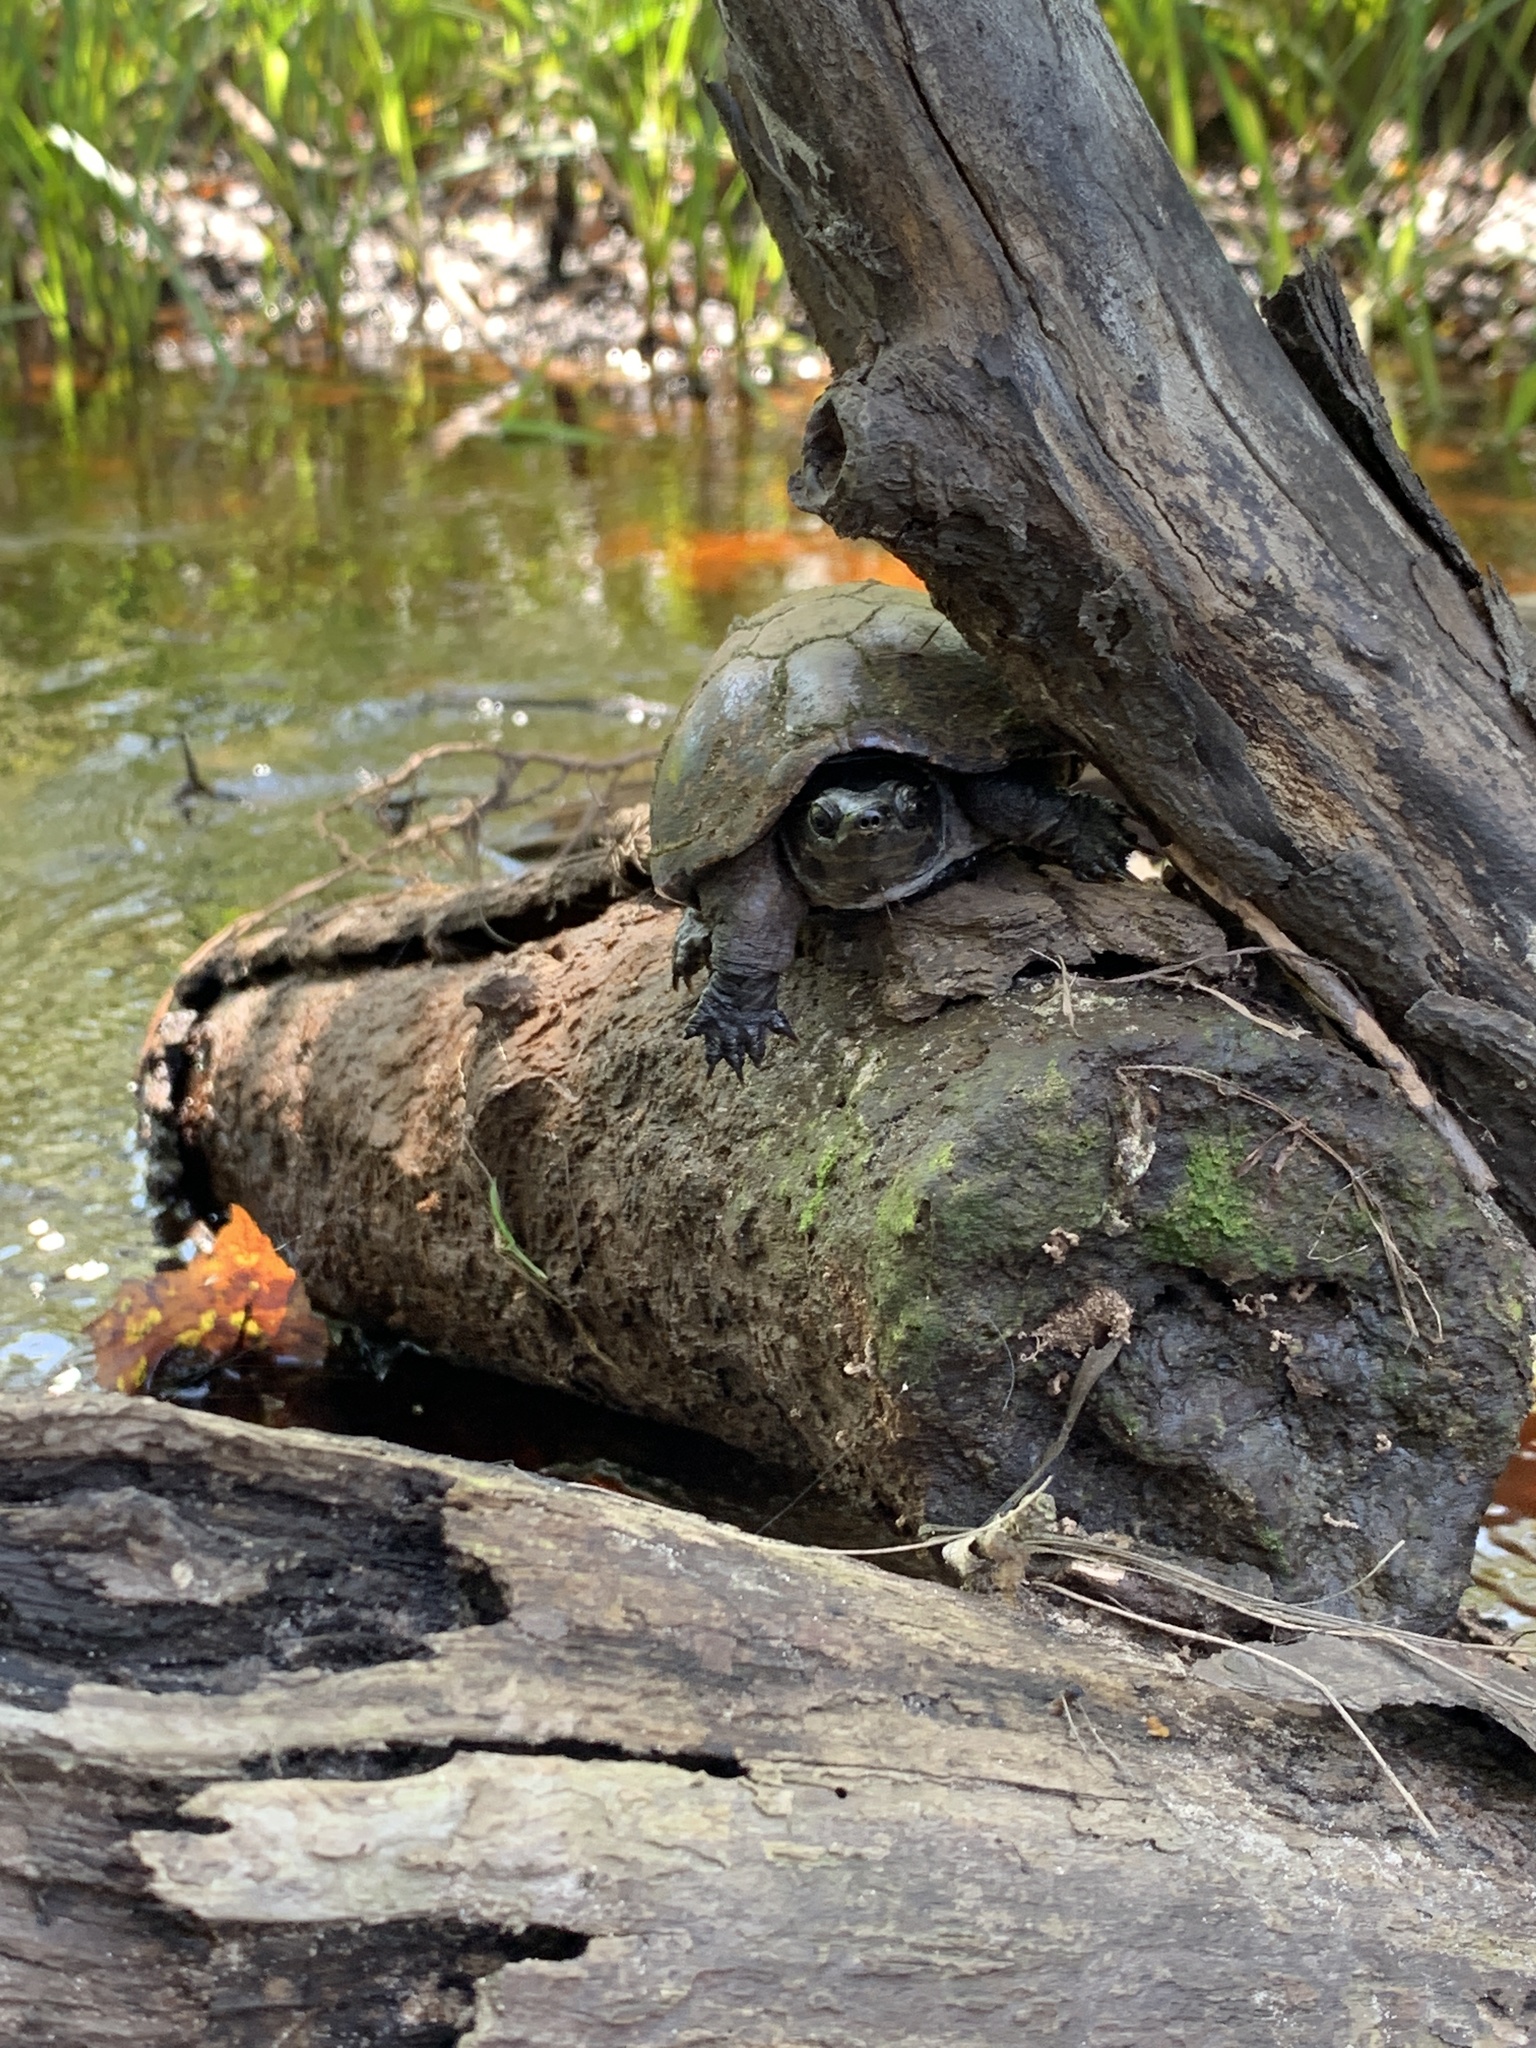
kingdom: Animalia
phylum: Chordata
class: Testudines
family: Kinosternidae
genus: Sternotherus
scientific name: Sternotherus odoratus
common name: Common musk turtle
